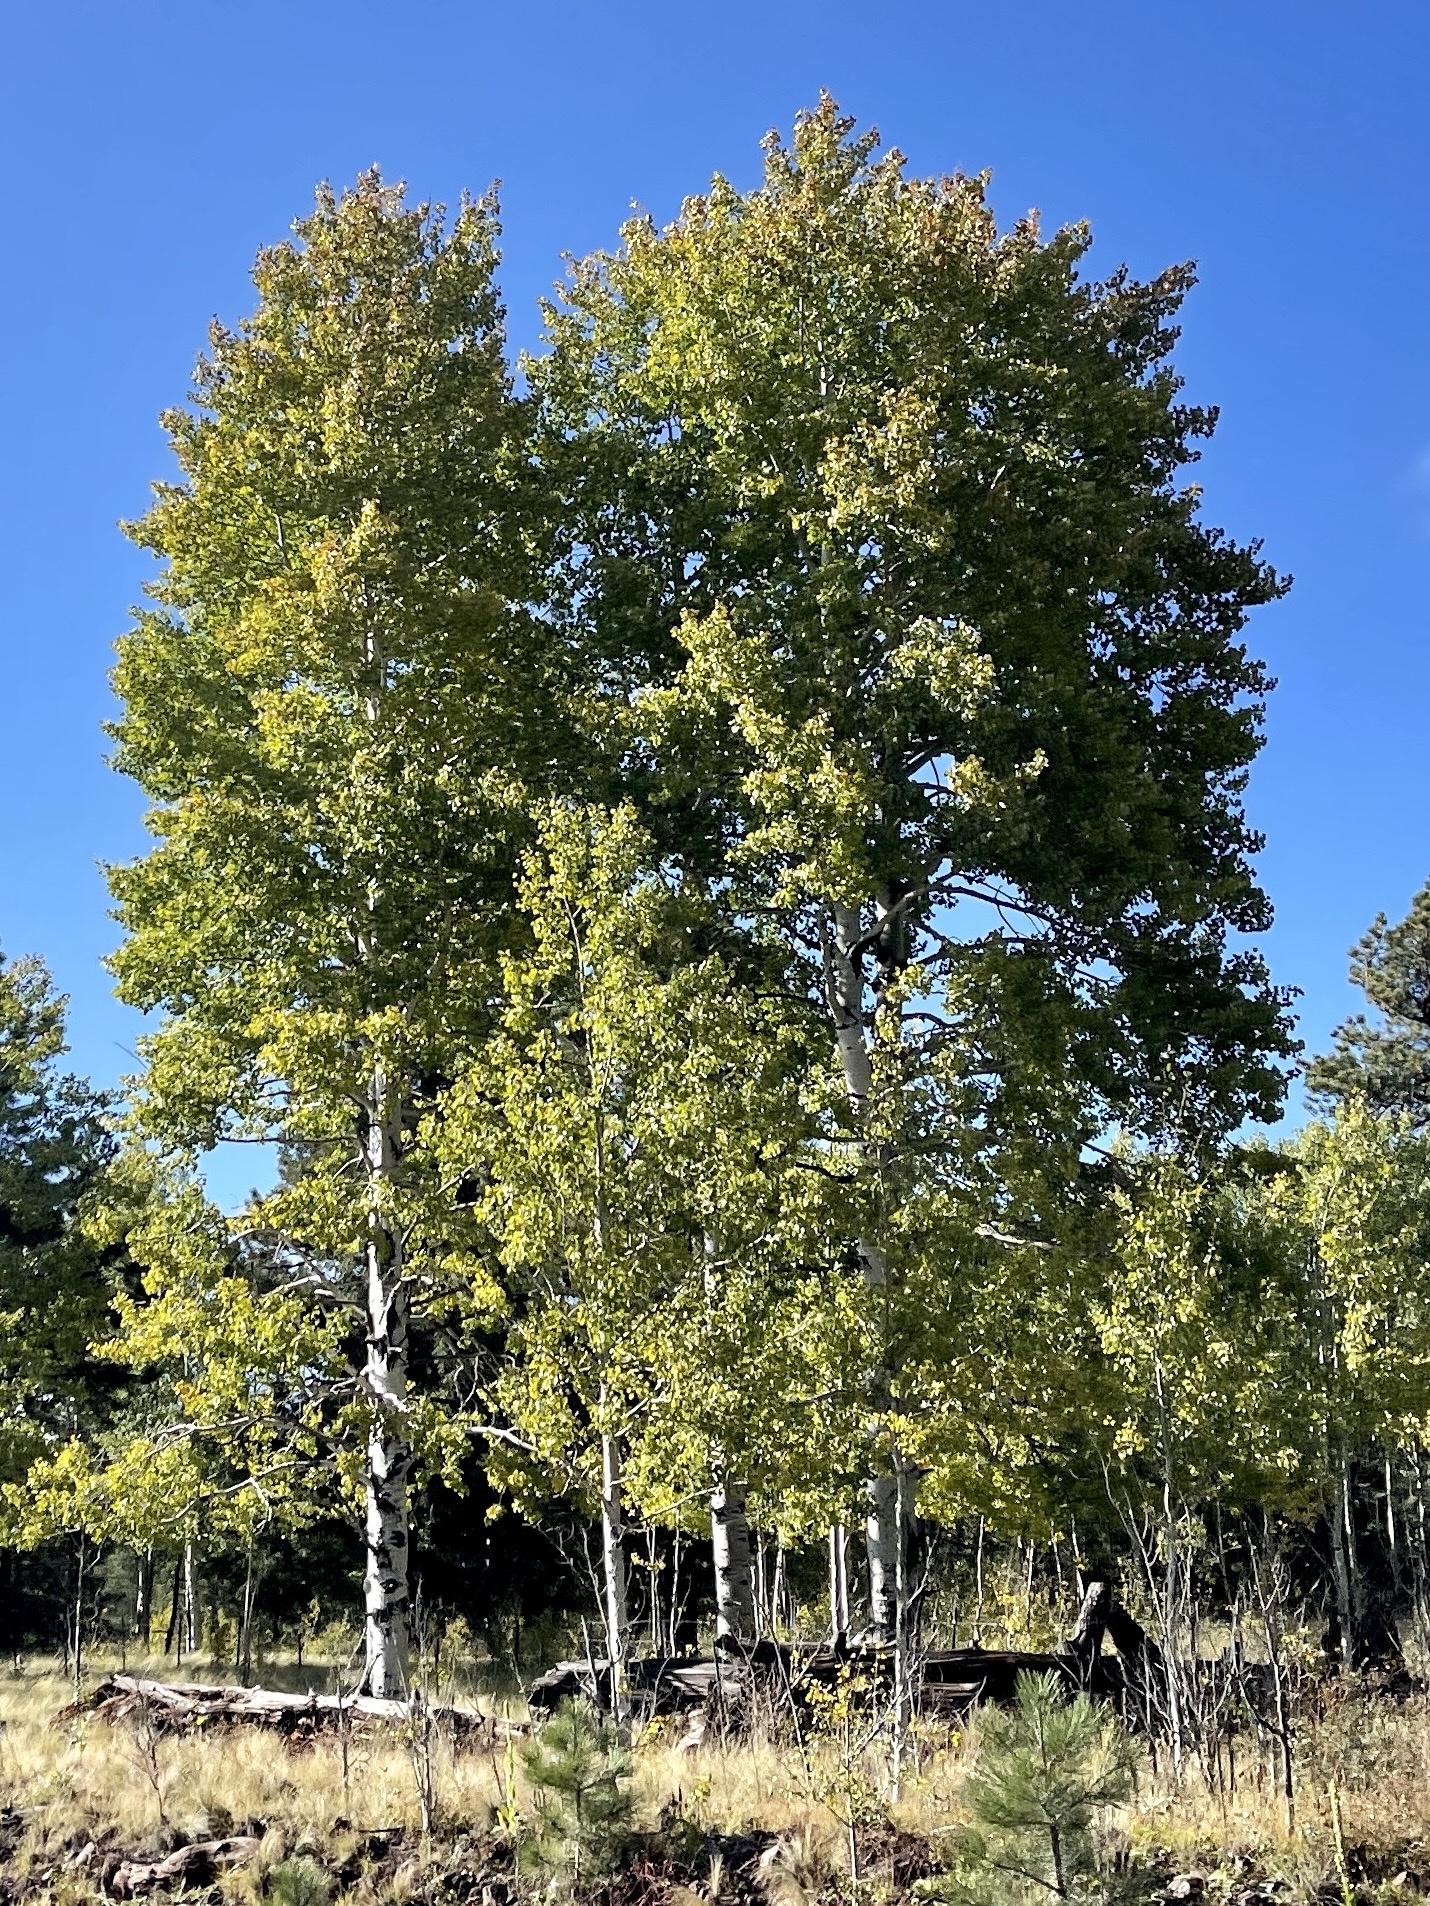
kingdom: Plantae
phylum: Tracheophyta
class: Magnoliopsida
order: Malpighiales
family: Salicaceae
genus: Populus
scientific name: Populus tremuloides
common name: Quaking aspen
